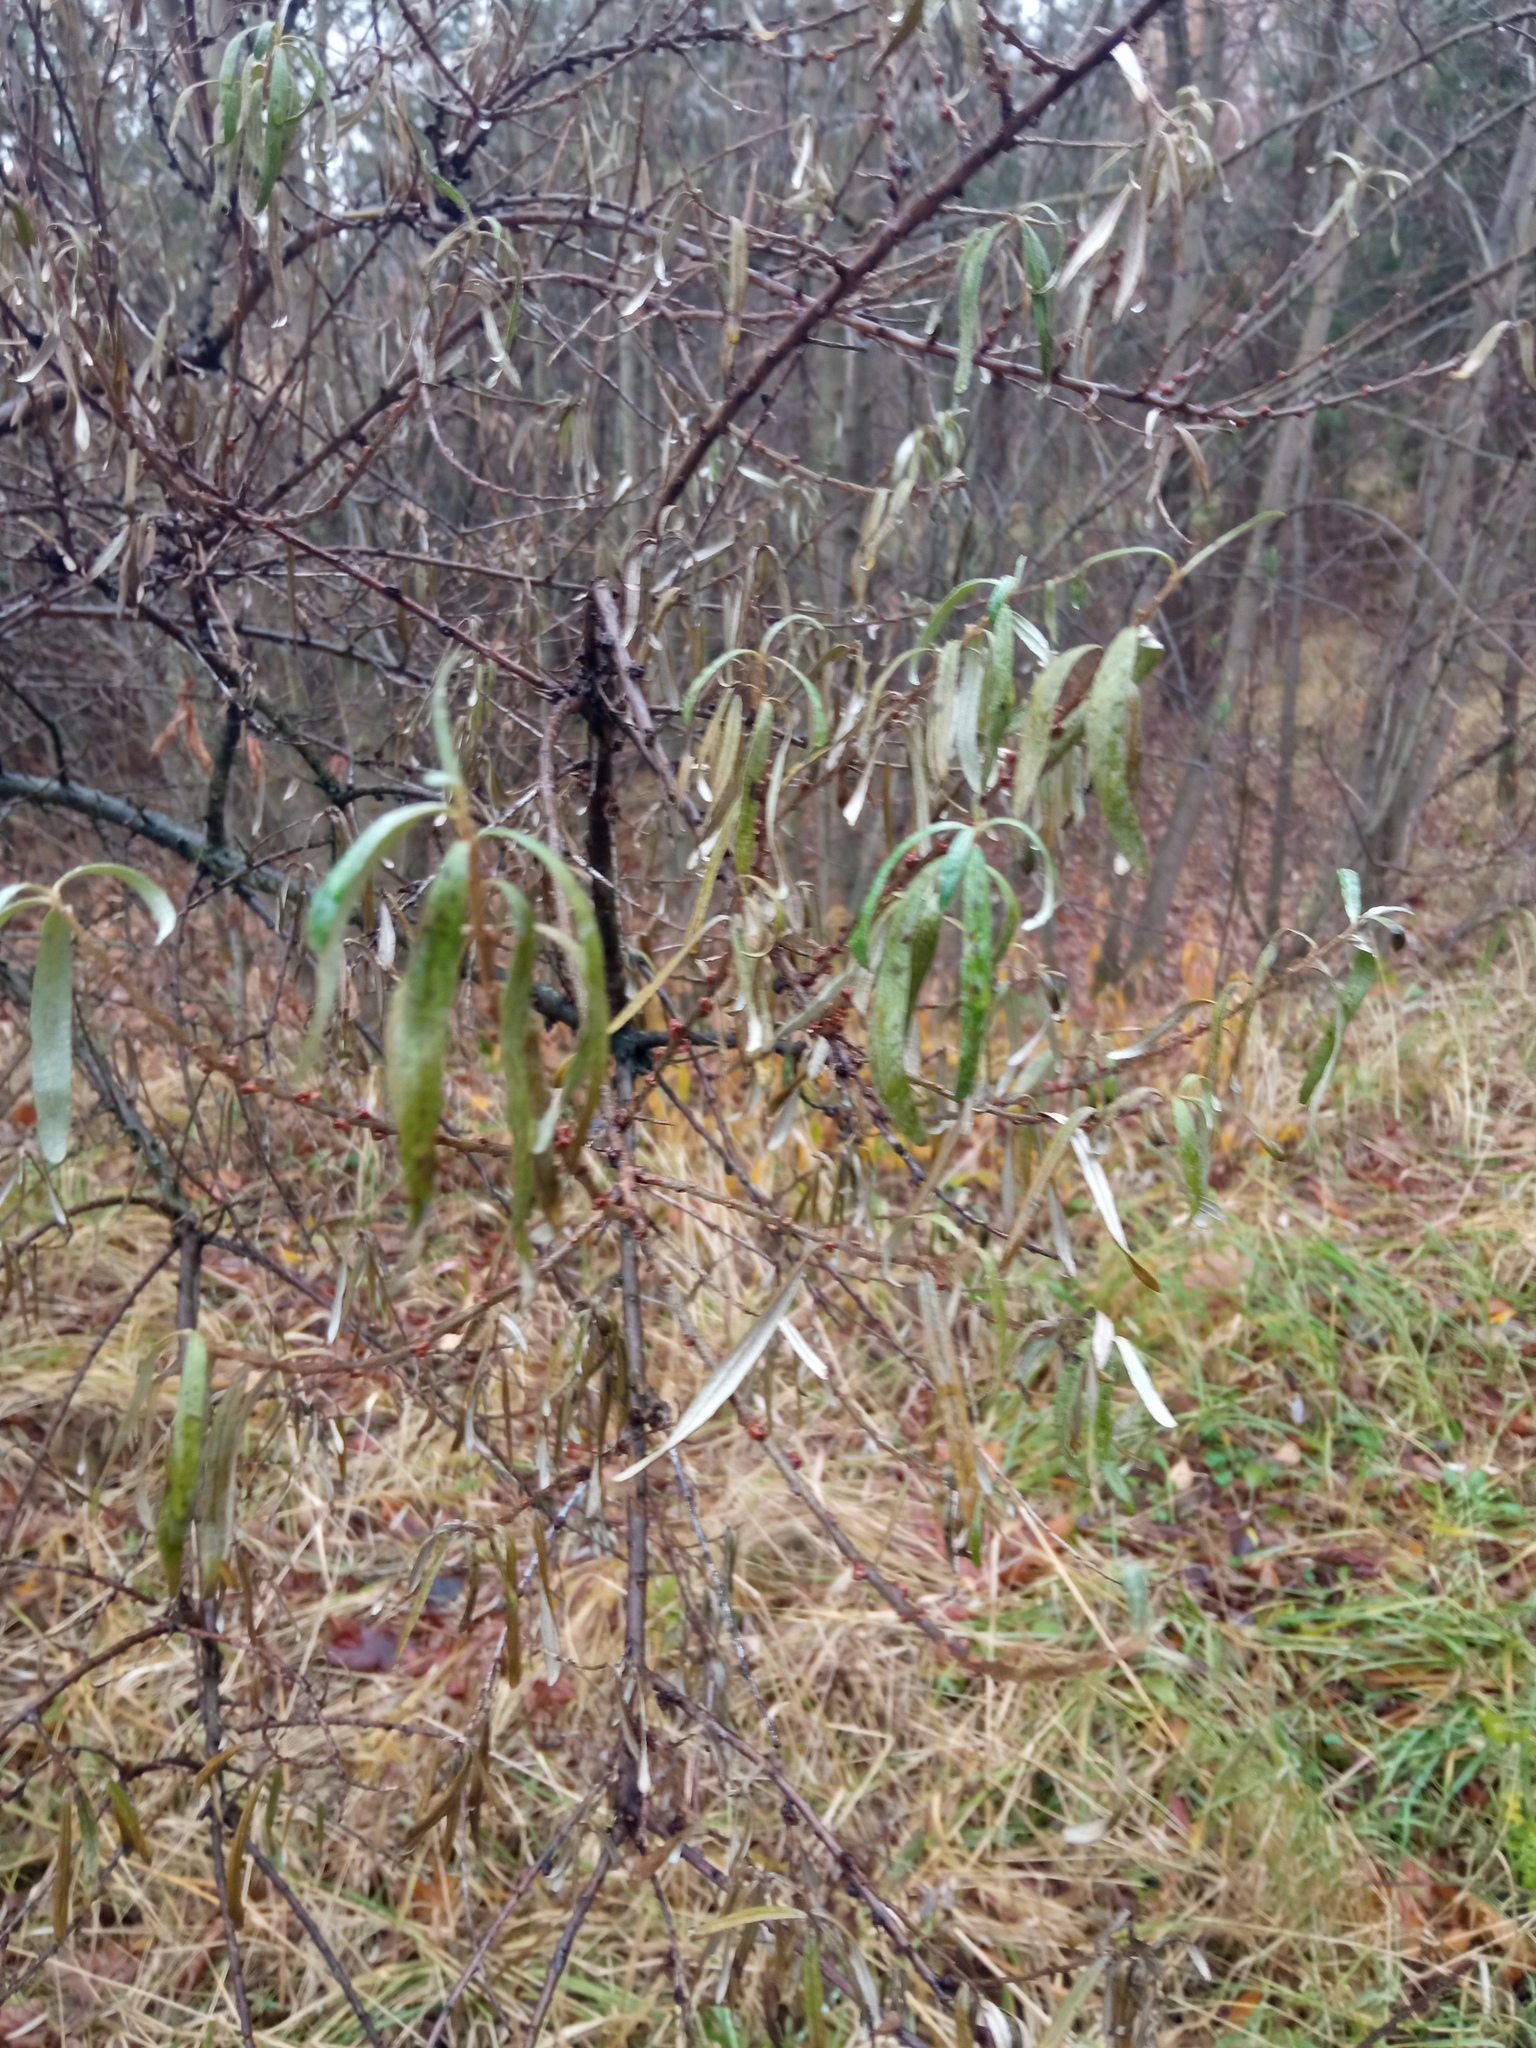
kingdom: Plantae
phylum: Tracheophyta
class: Magnoliopsida
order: Rosales
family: Elaeagnaceae
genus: Hippophae
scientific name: Hippophae rhamnoides
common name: Sea-buckthorn
